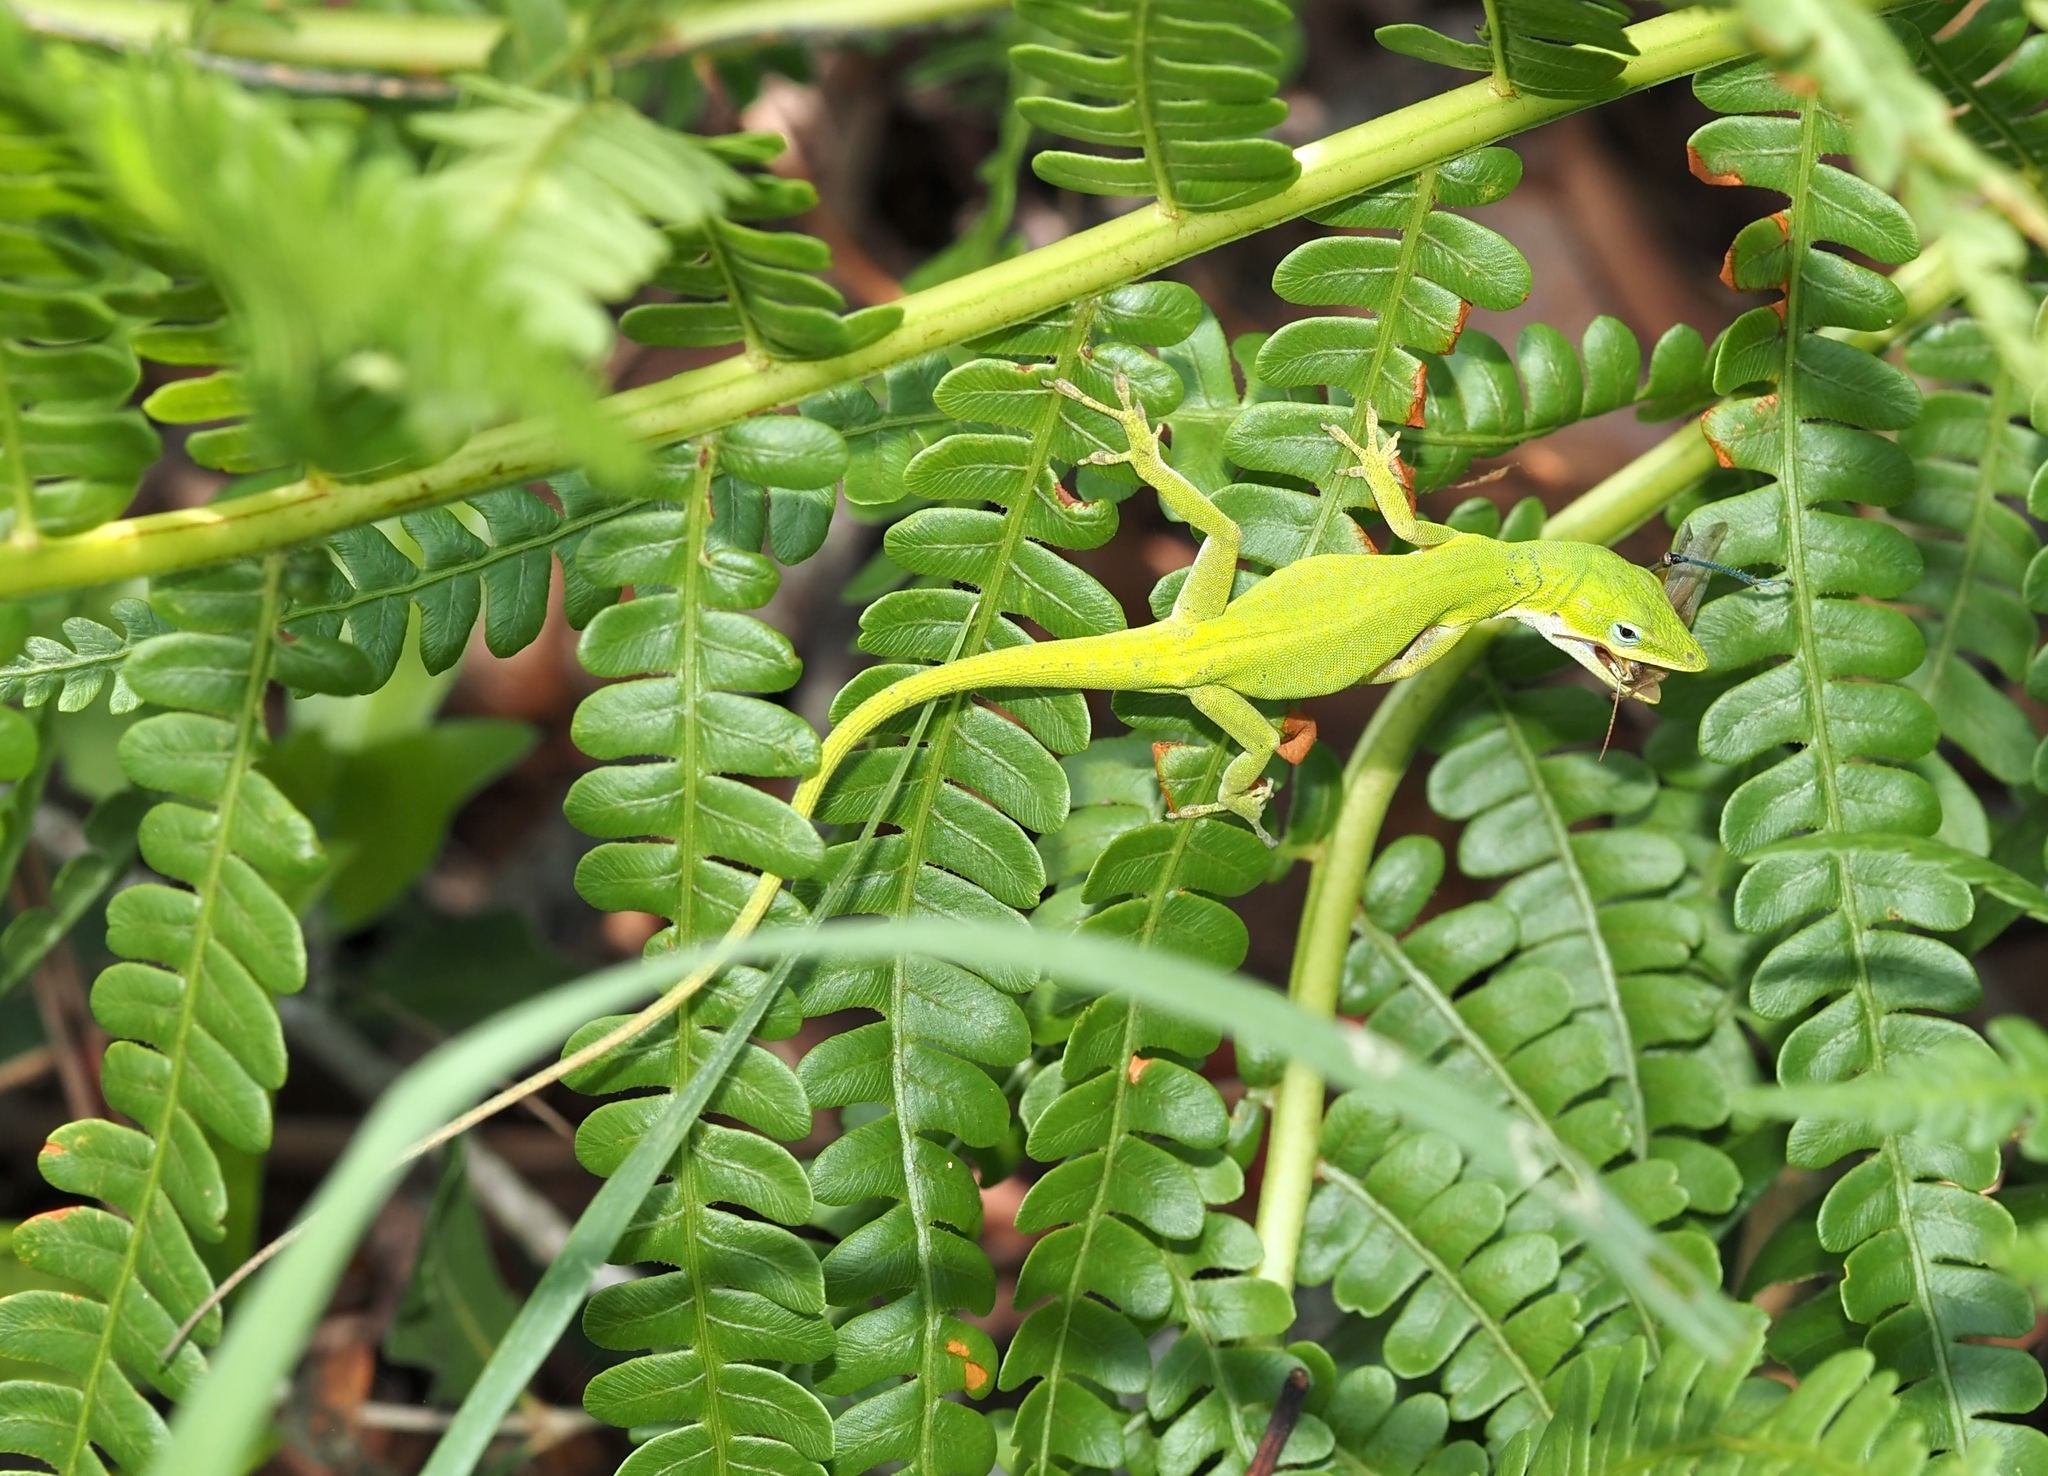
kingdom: Animalia
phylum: Chordata
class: Squamata
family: Dactyloidae
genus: Anolis
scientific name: Anolis carolinensis
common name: Green anole
